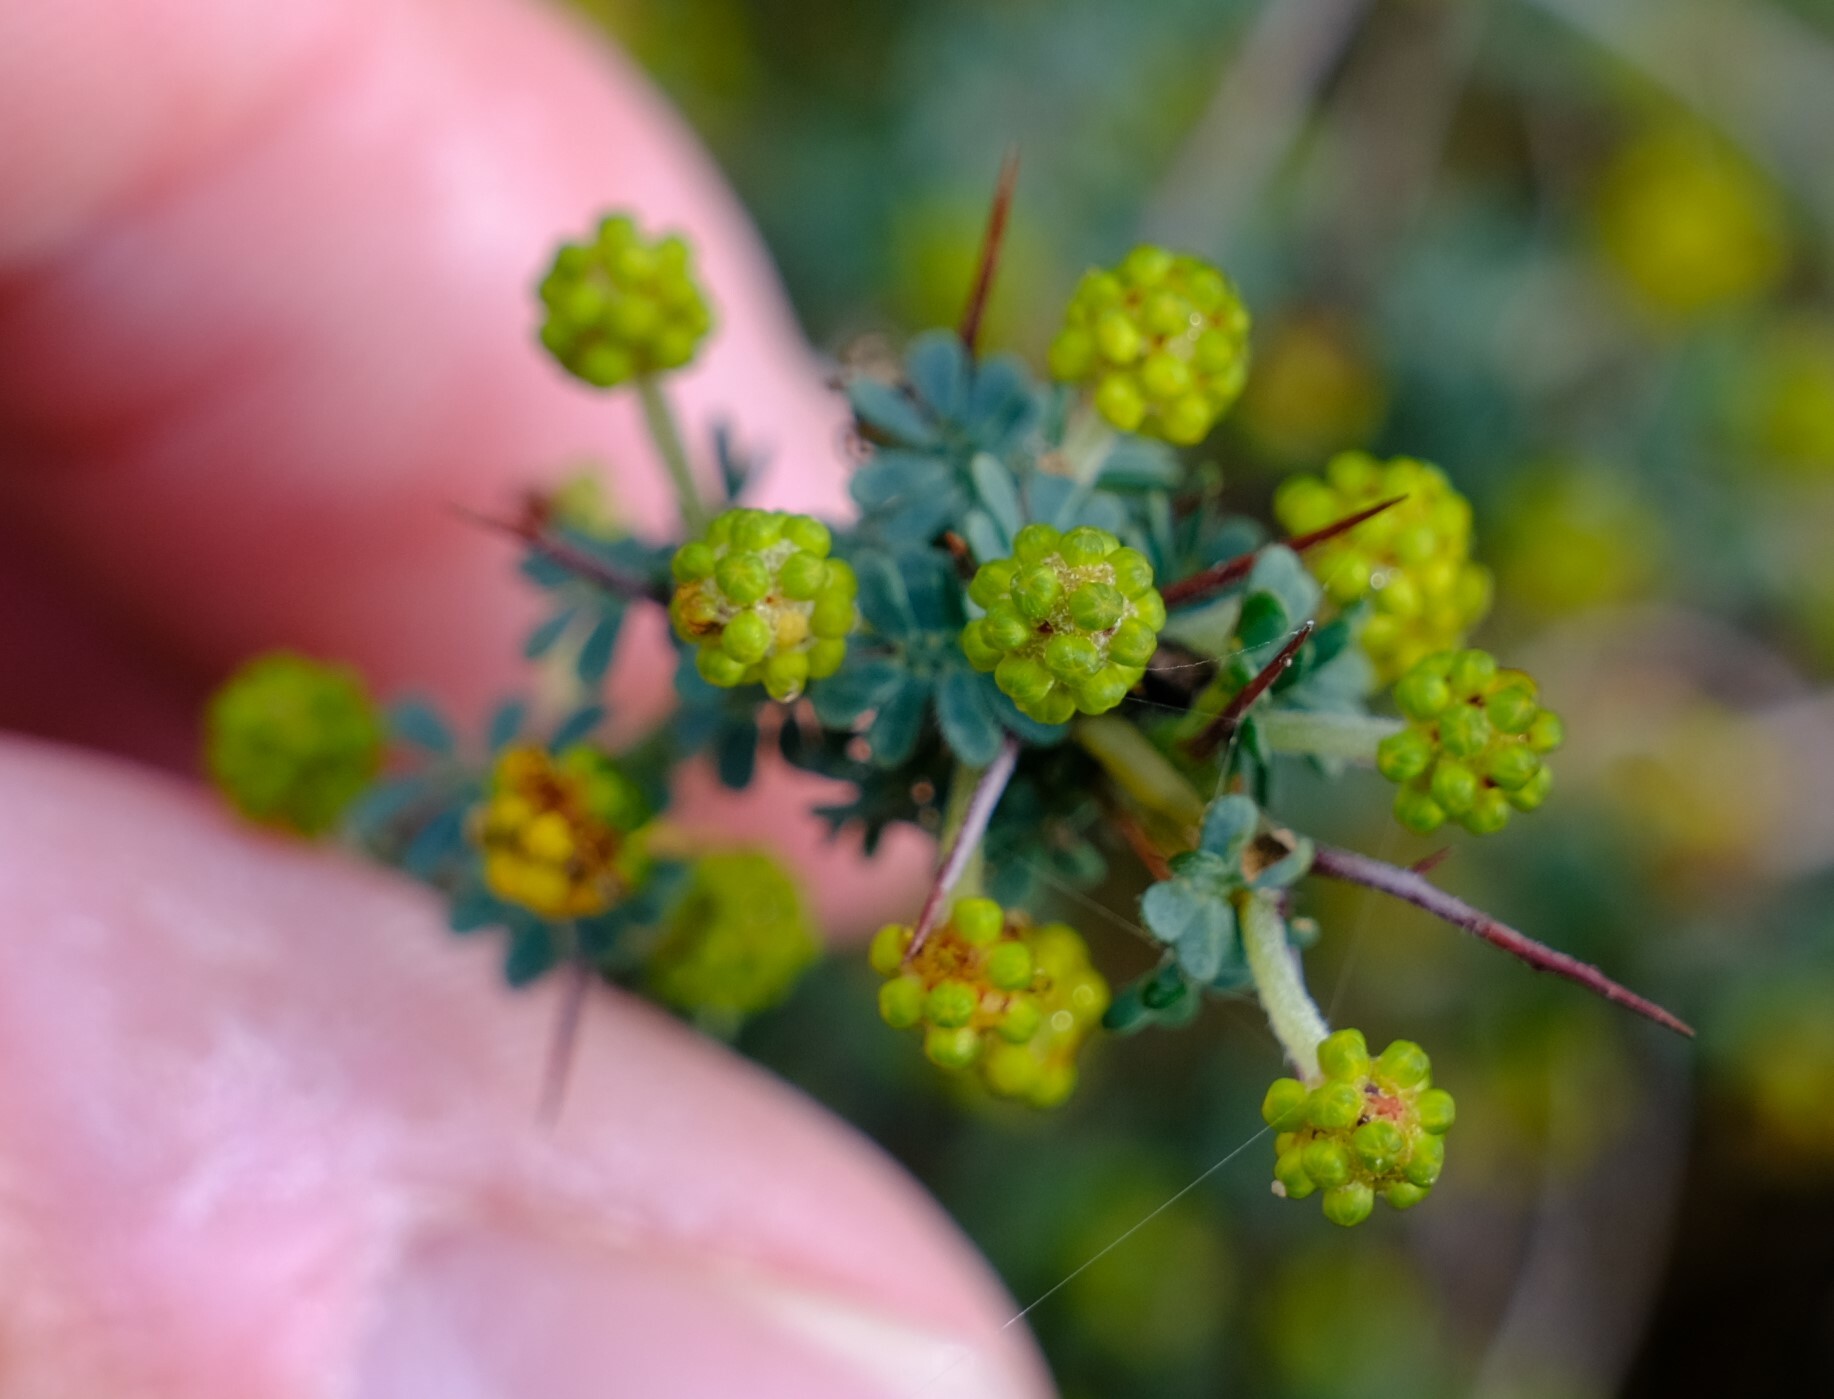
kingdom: Plantae
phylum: Tracheophyta
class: Magnoliopsida
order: Fabales
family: Fabaceae
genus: Acacia
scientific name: Acacia pulchella
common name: Prickly moses
